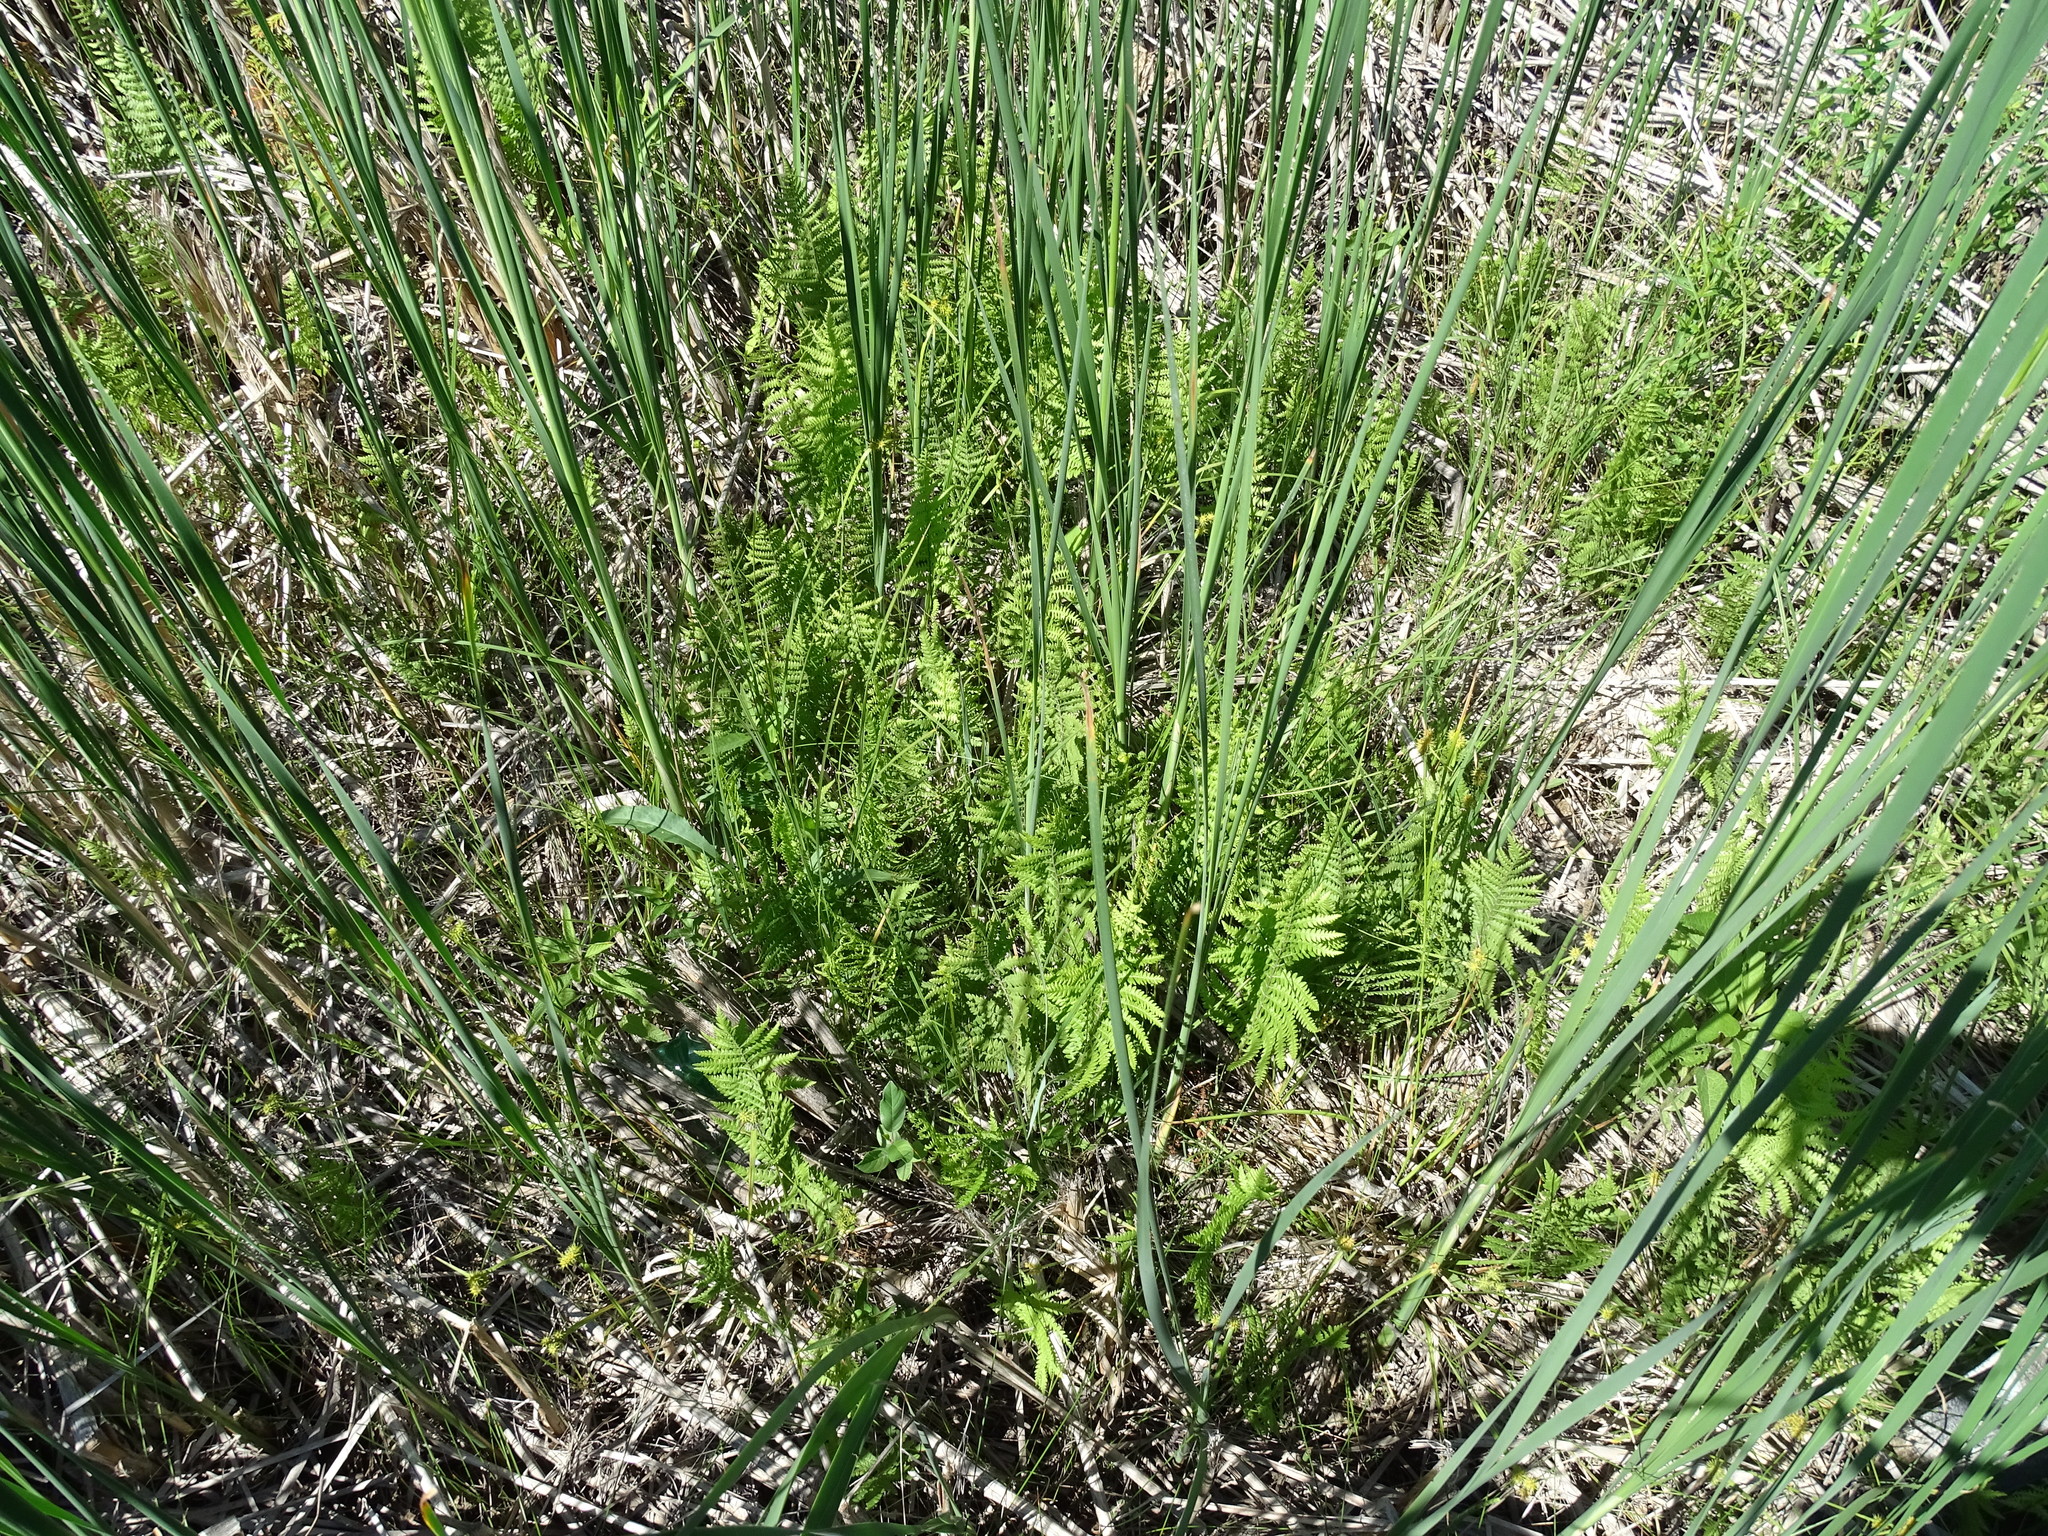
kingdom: Plantae
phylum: Tracheophyta
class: Polypodiopsida
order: Polypodiales
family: Thelypteridaceae
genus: Thelypteris
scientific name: Thelypteris palustris
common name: Marsh fern
